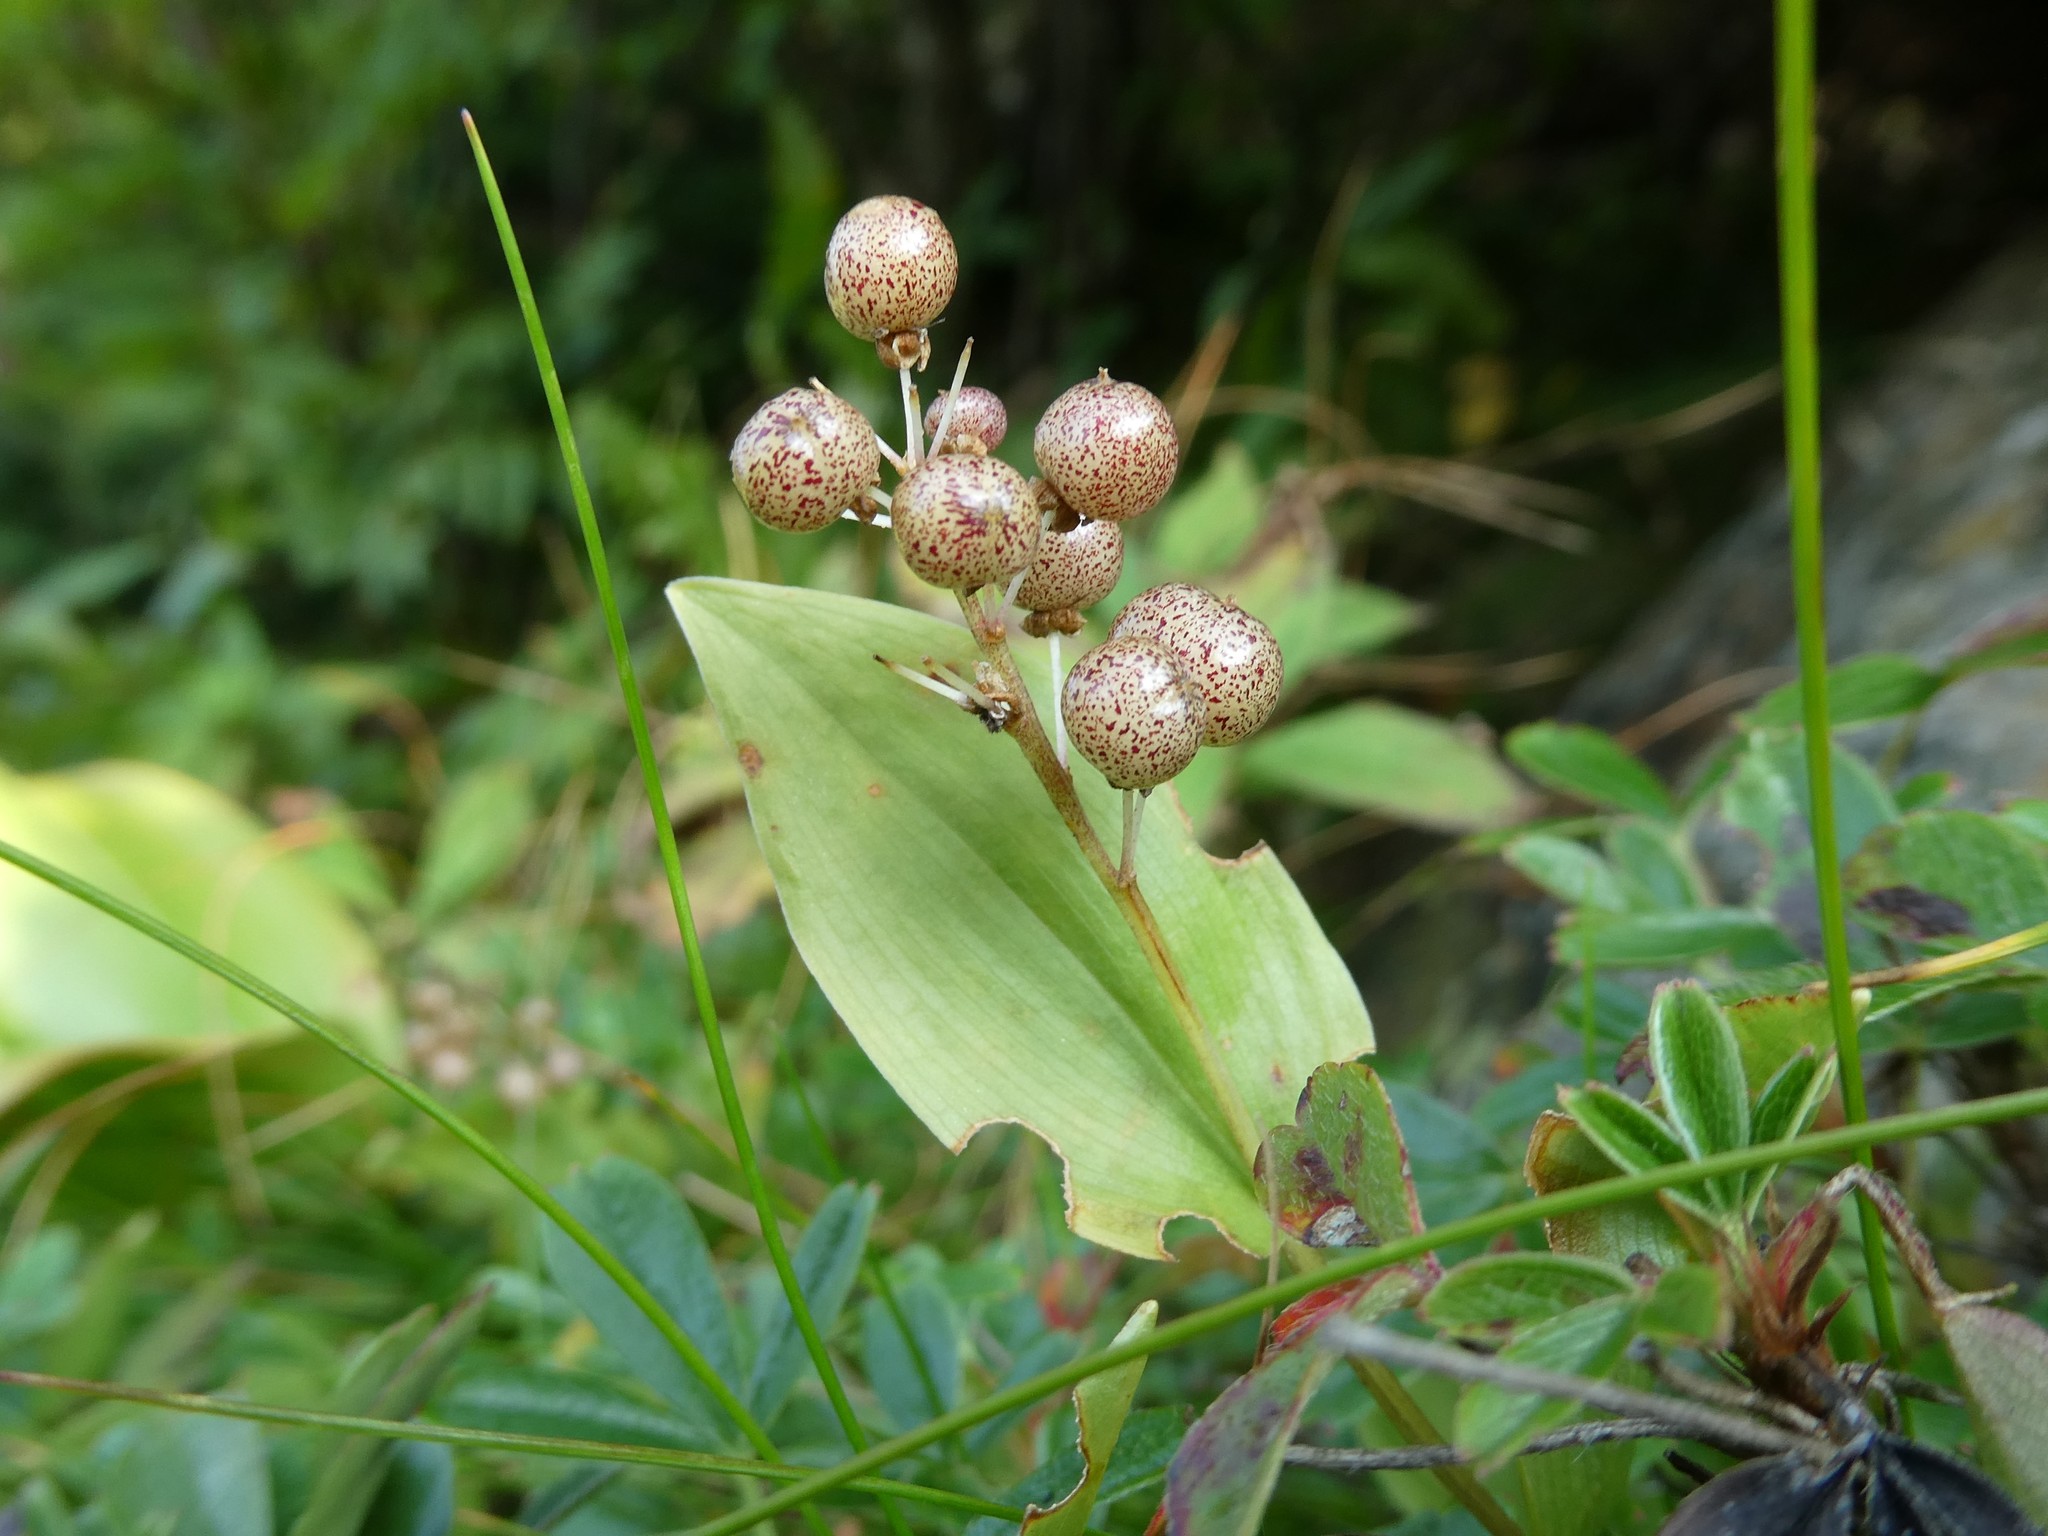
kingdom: Plantae
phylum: Tracheophyta
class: Liliopsida
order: Asparagales
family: Asparagaceae
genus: Maianthemum
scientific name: Maianthemum canadense
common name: False lily-of-the-valley
